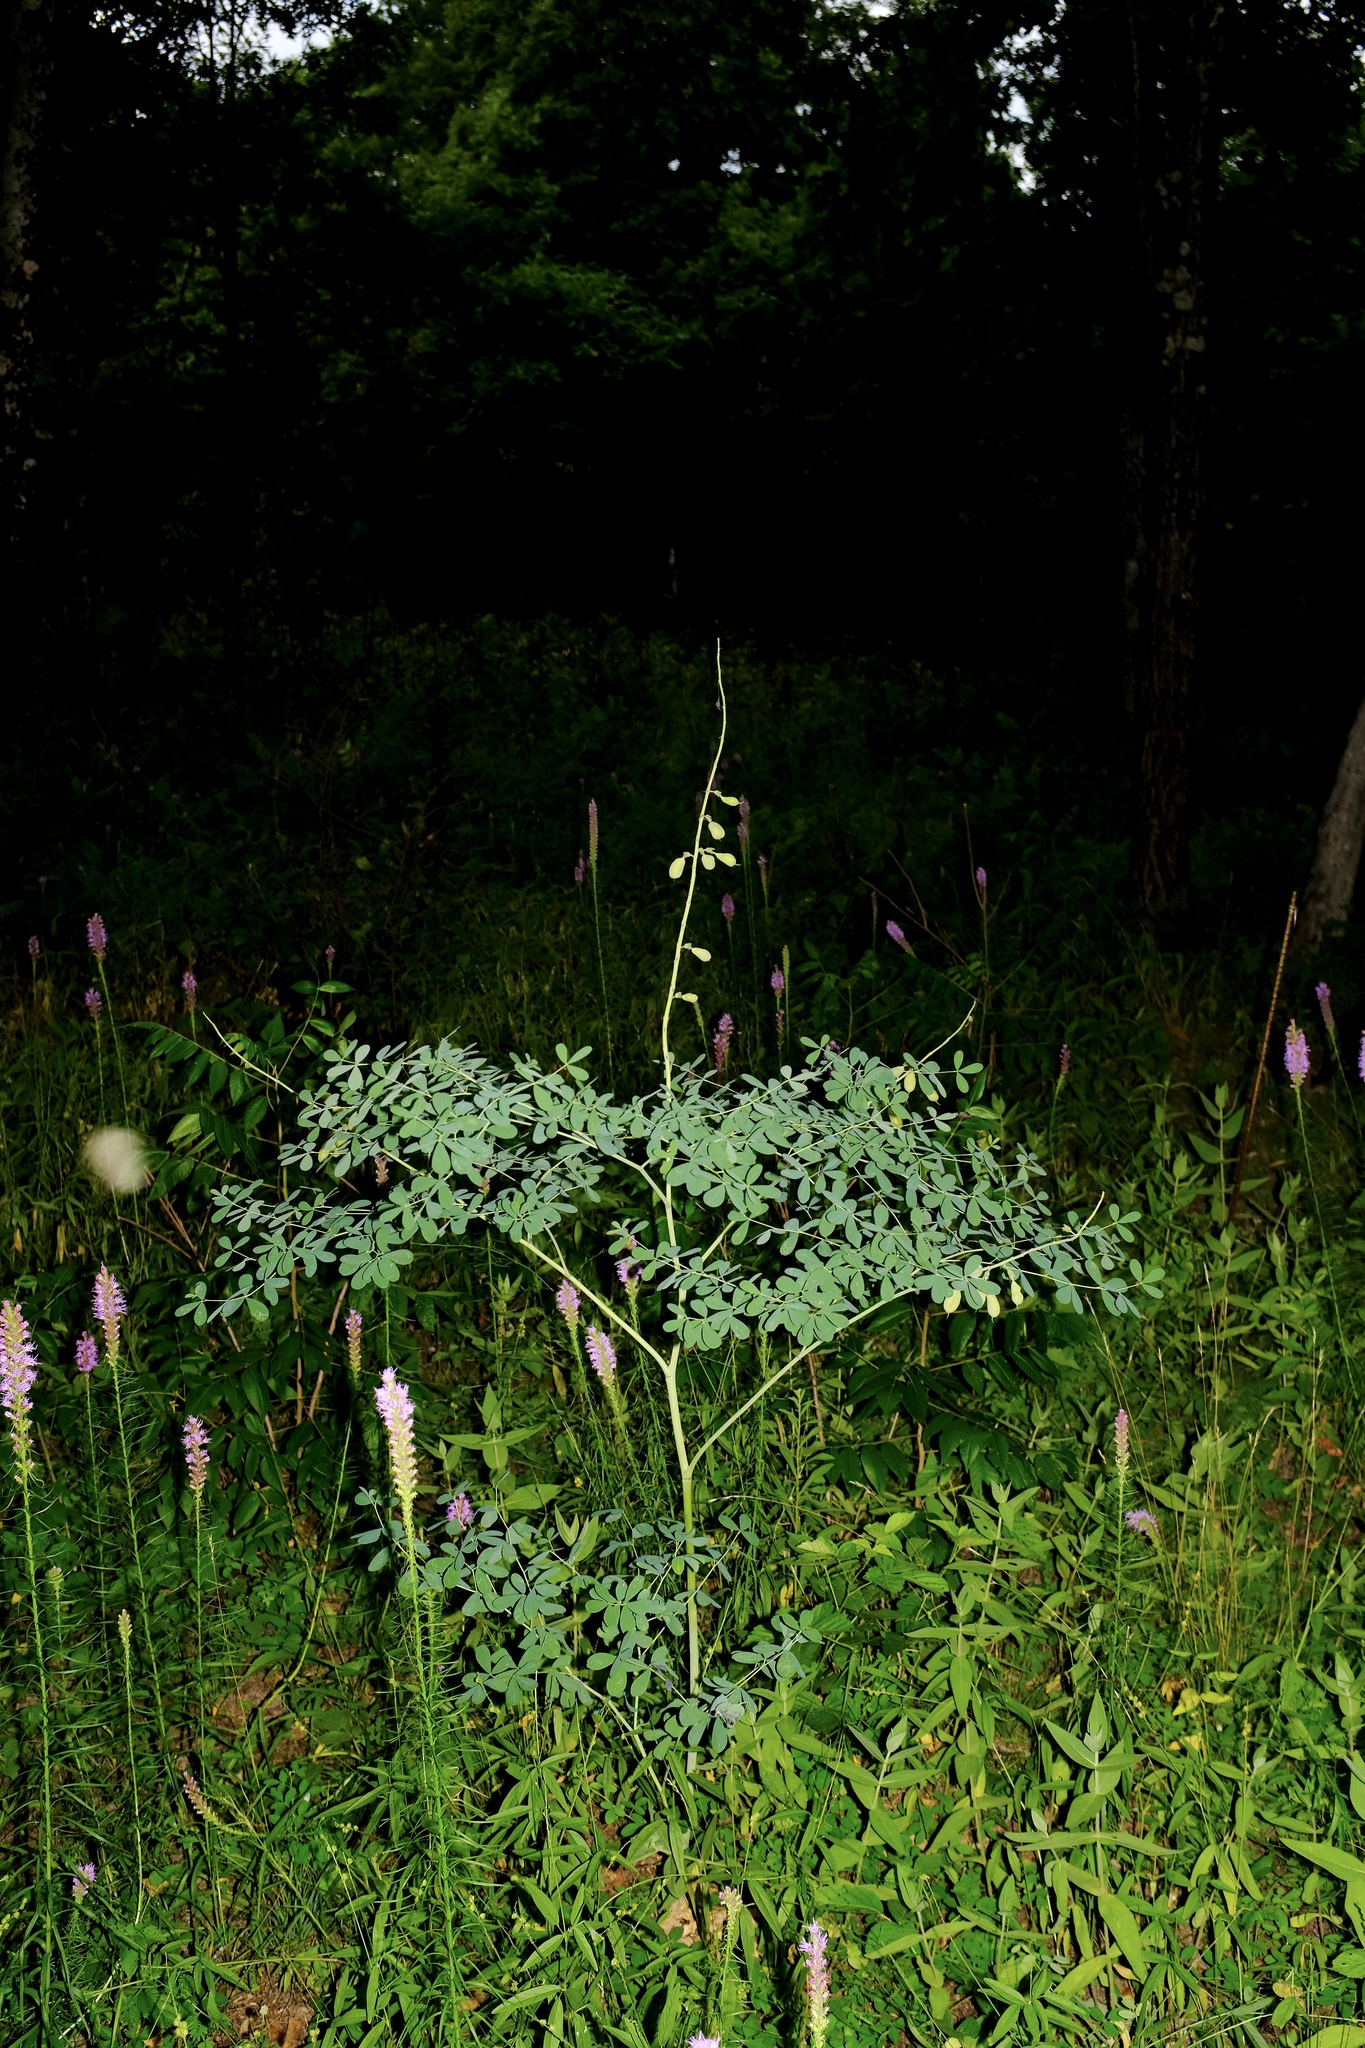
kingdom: Plantae
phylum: Tracheophyta
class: Magnoliopsida
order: Fabales
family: Fabaceae
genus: Baptisia
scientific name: Baptisia alba
